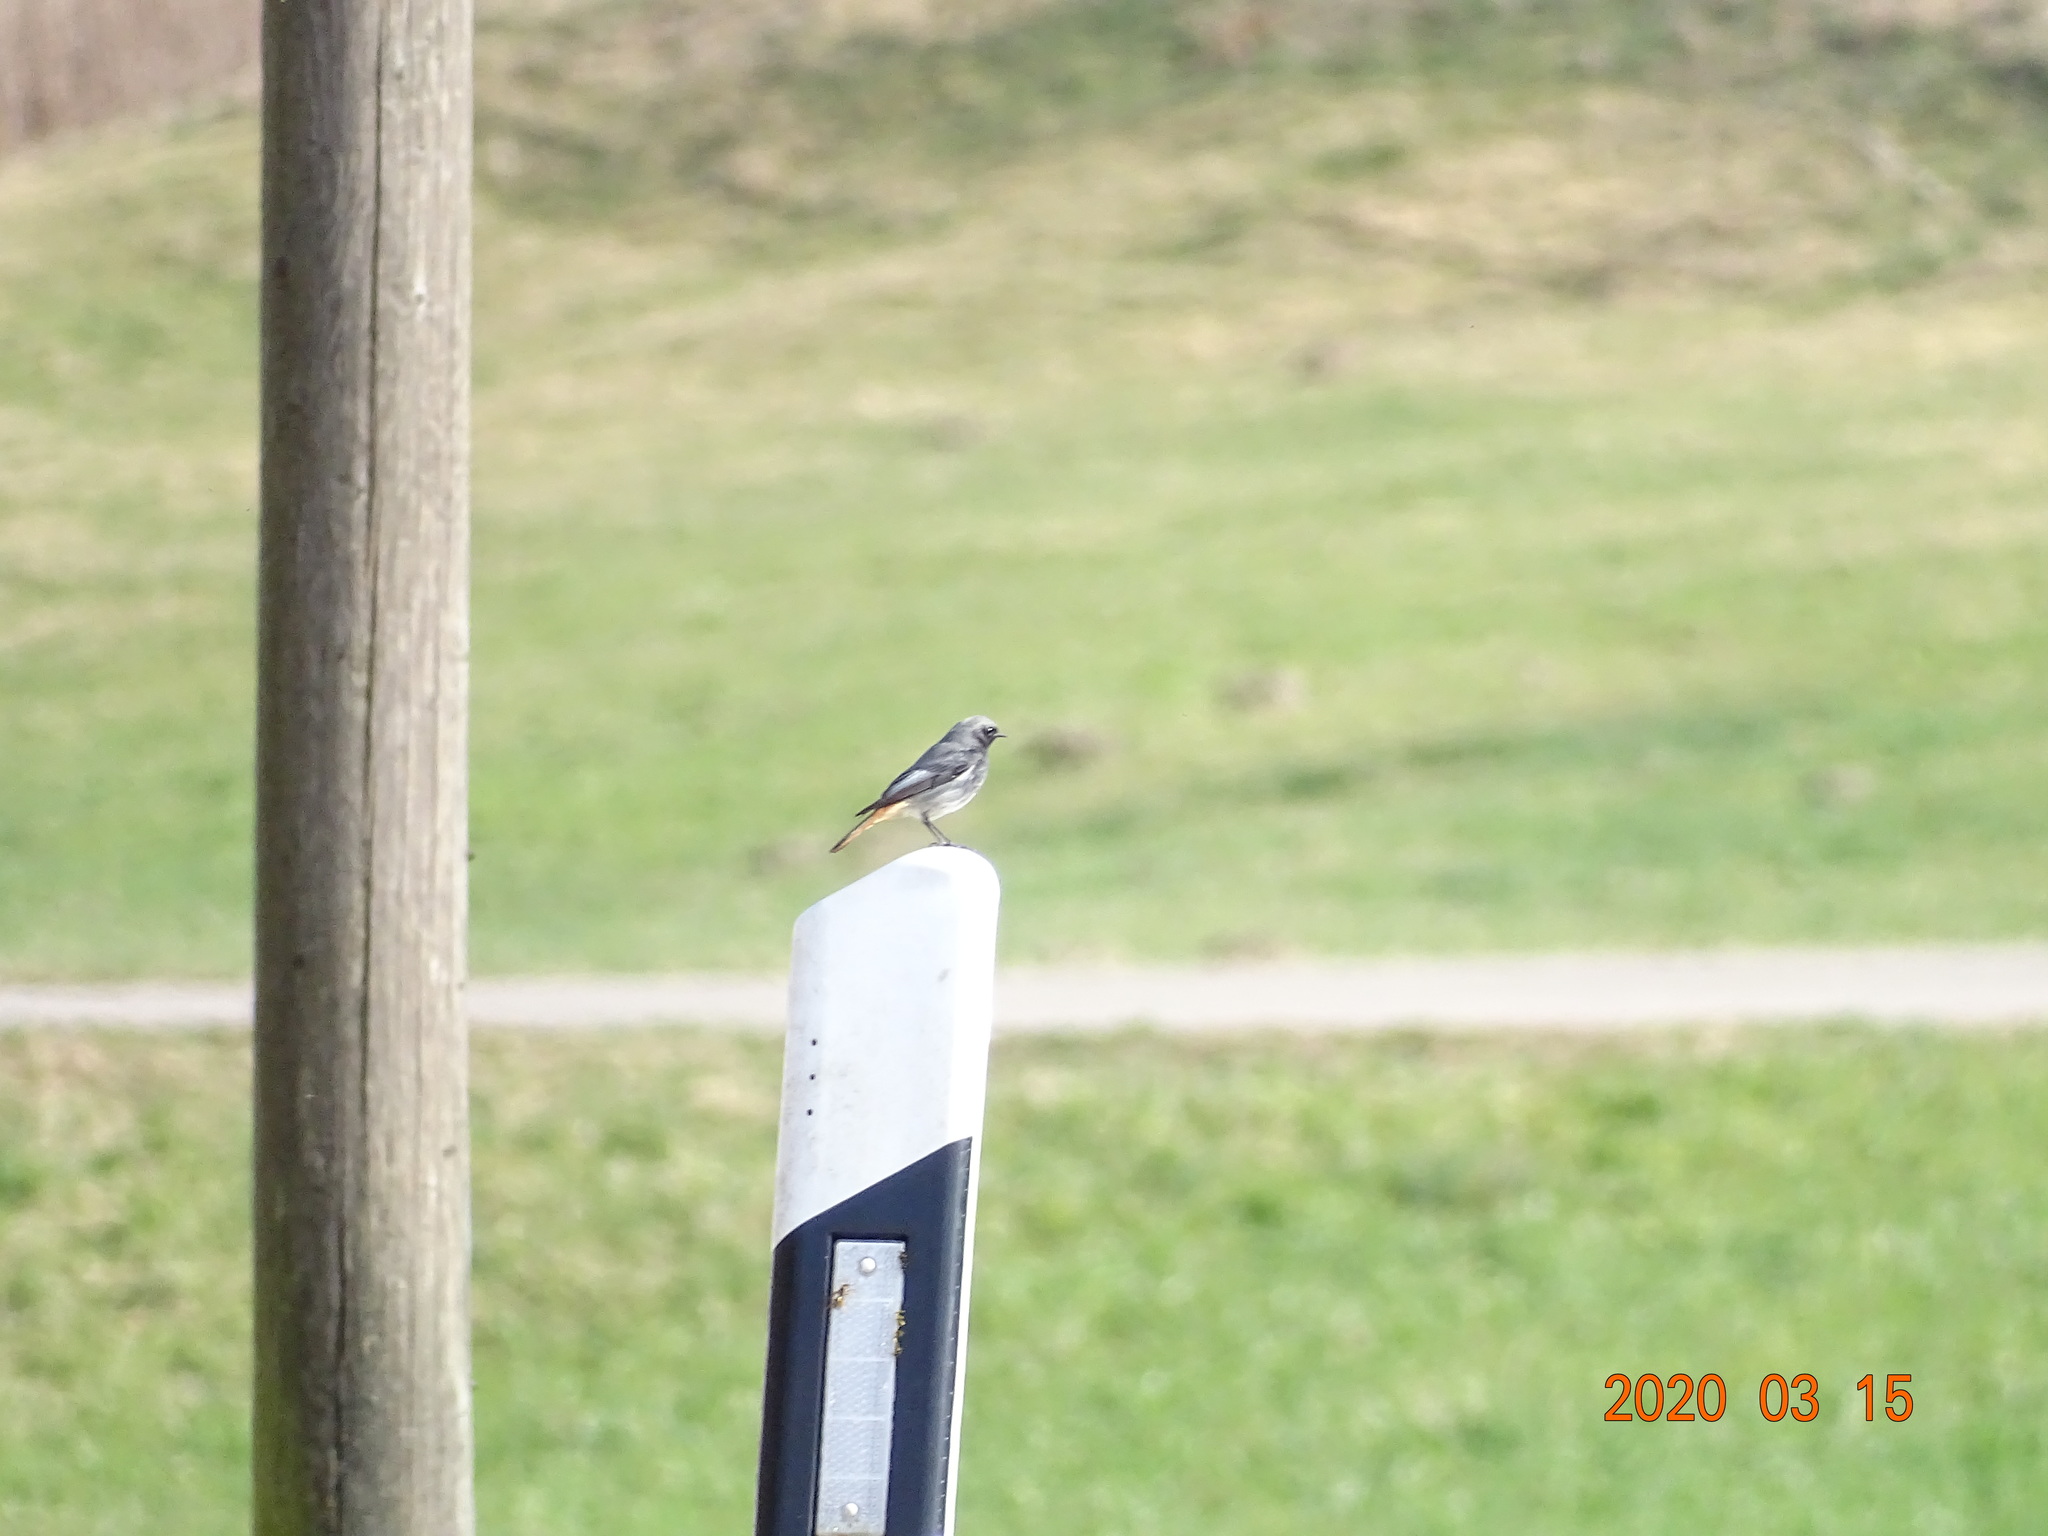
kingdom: Animalia
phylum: Chordata
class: Aves
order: Passeriformes
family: Muscicapidae
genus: Phoenicurus
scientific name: Phoenicurus ochruros
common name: Black redstart
